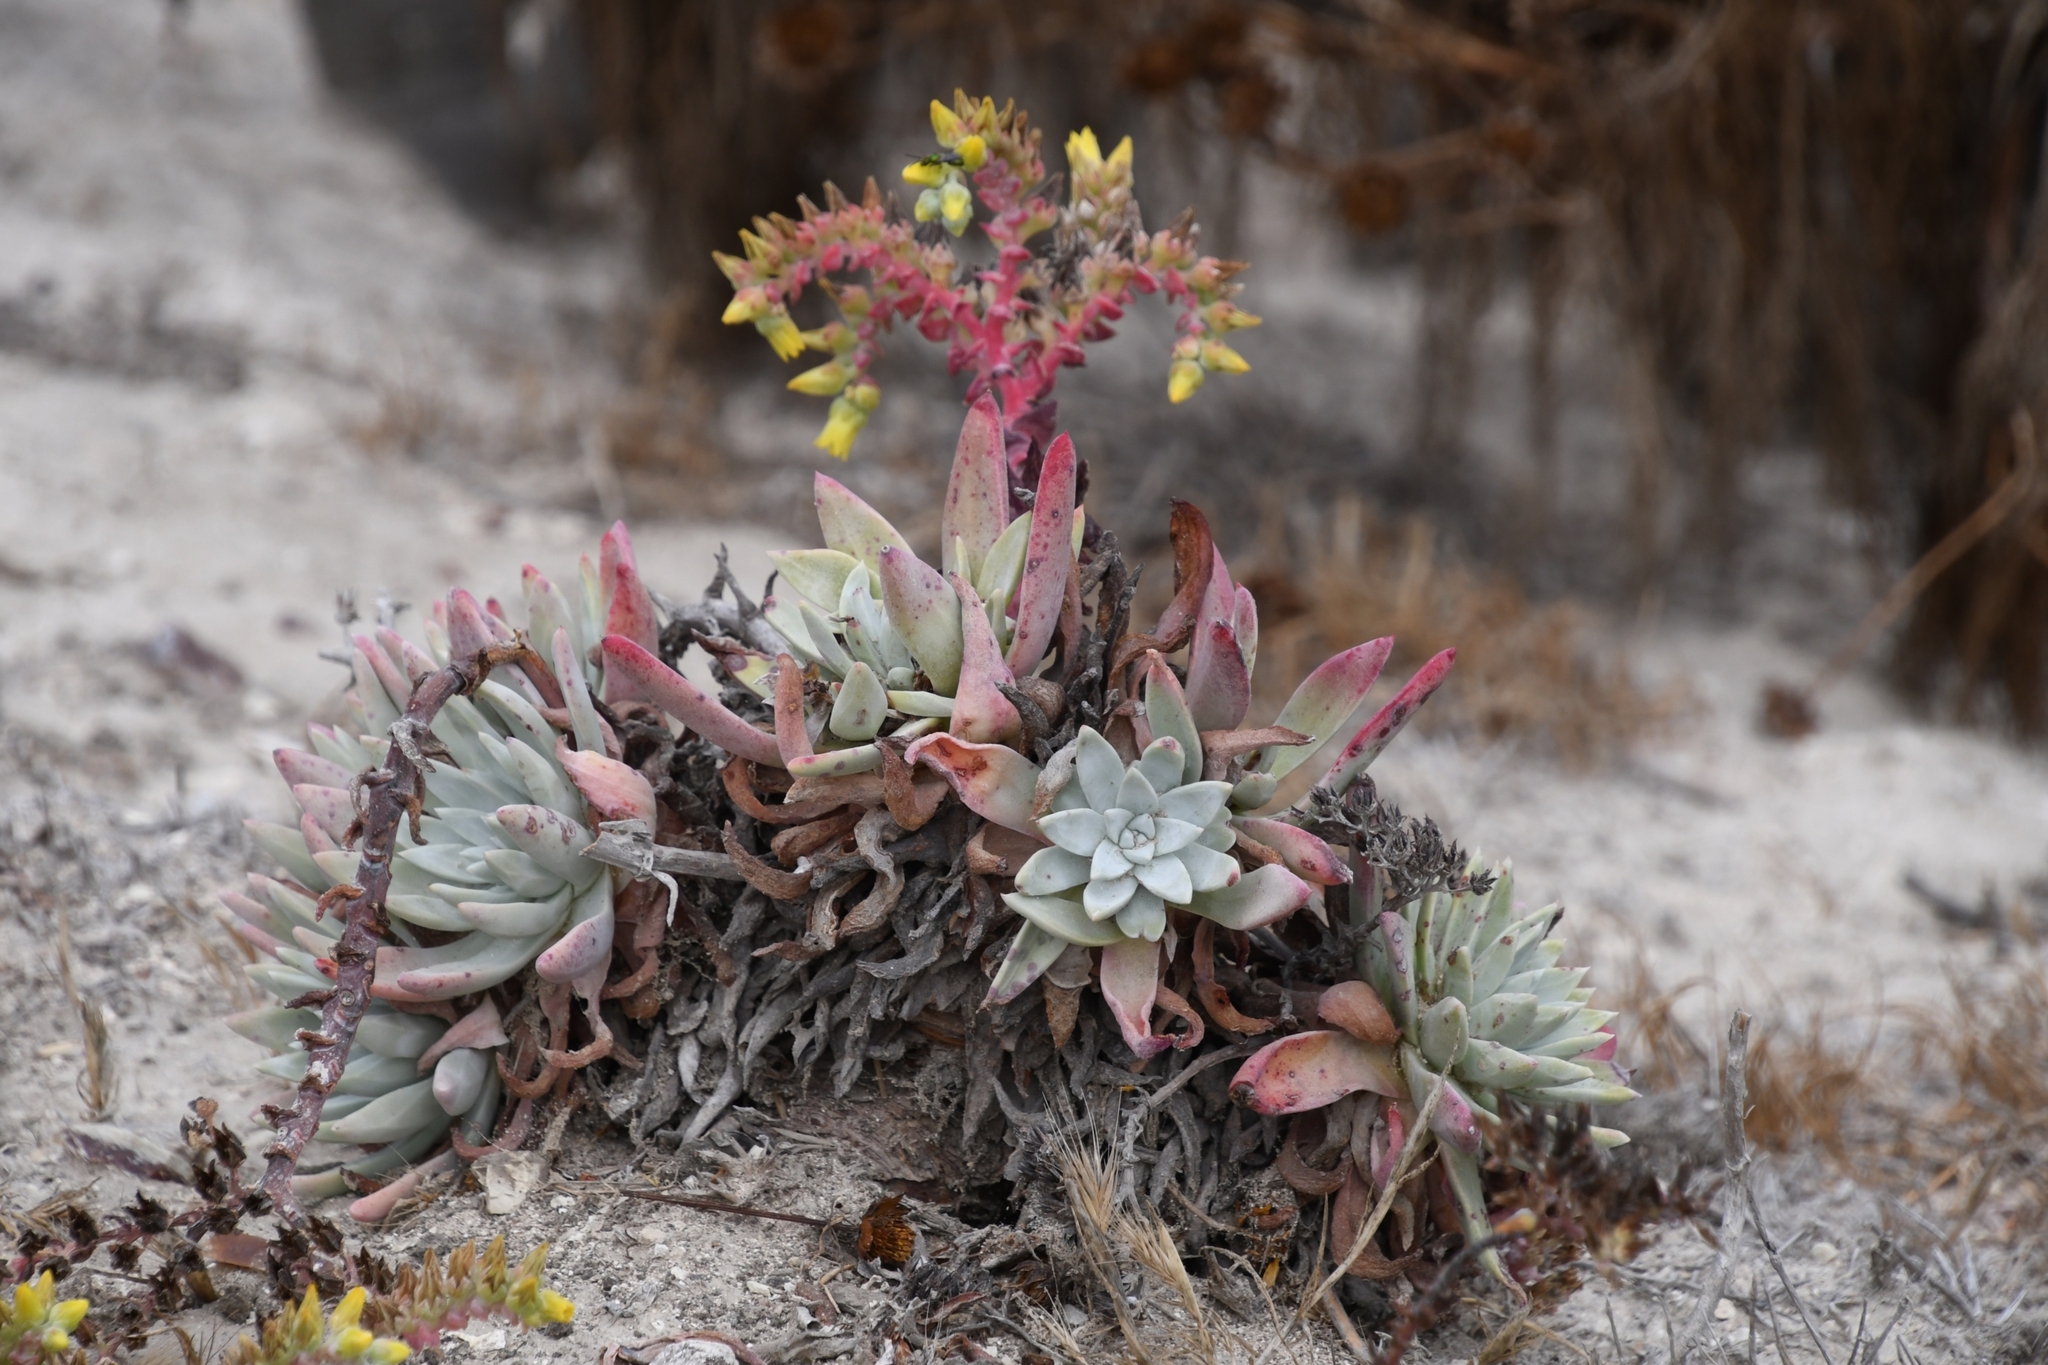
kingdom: Plantae
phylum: Tracheophyta
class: Magnoliopsida
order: Saxifragales
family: Crassulaceae
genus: Dudleya
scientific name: Dudleya greenei
